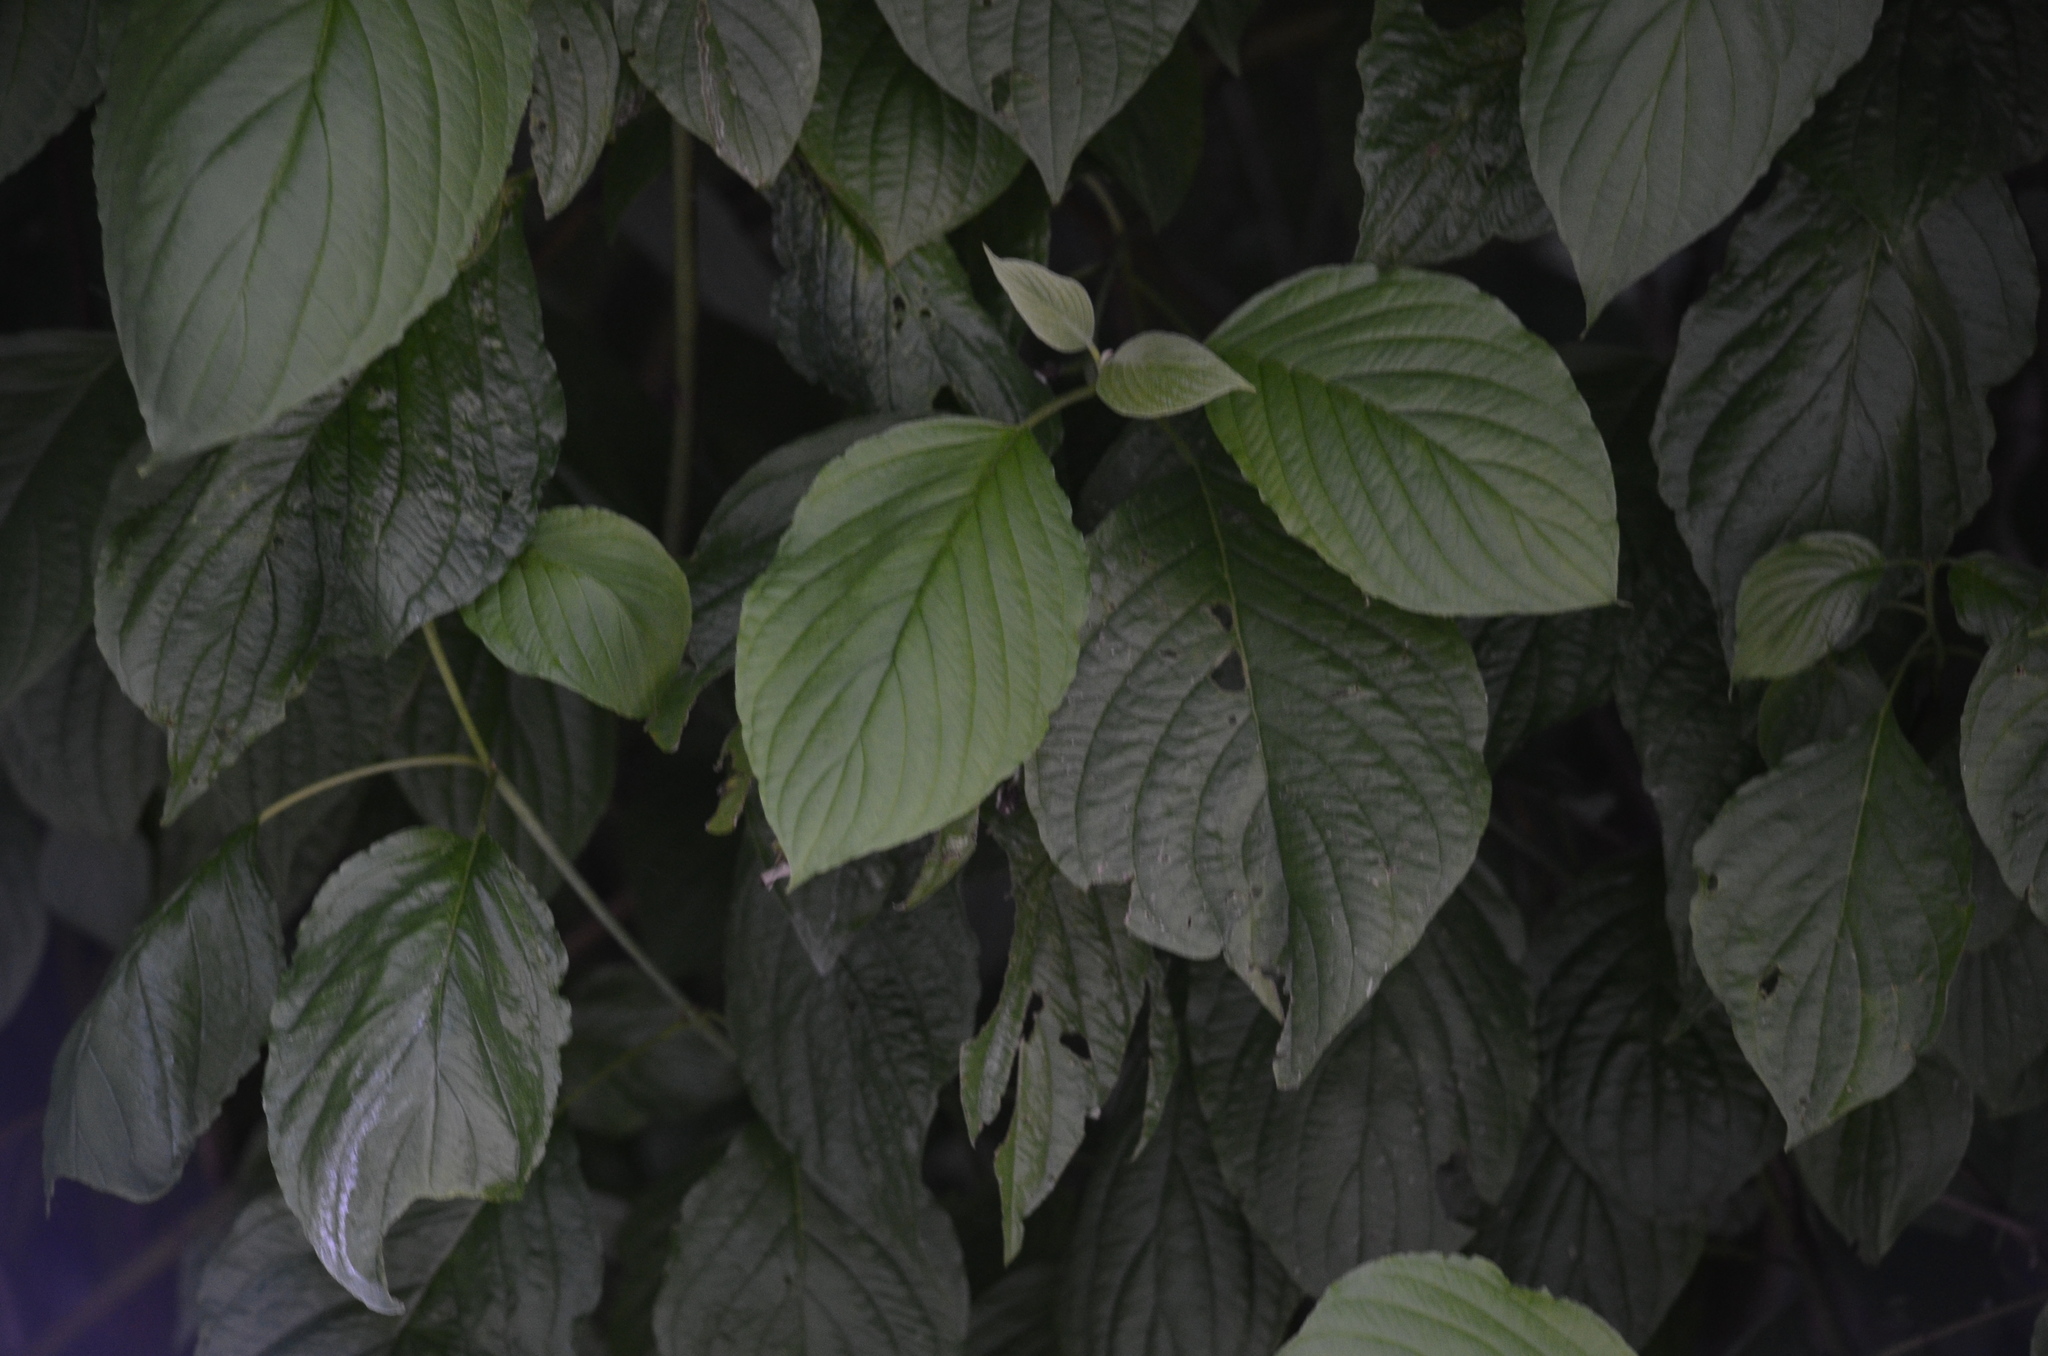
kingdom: Plantae
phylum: Tracheophyta
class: Magnoliopsida
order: Cornales
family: Cornaceae
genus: Cornus
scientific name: Cornus sericea
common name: Red-osier dogwood
